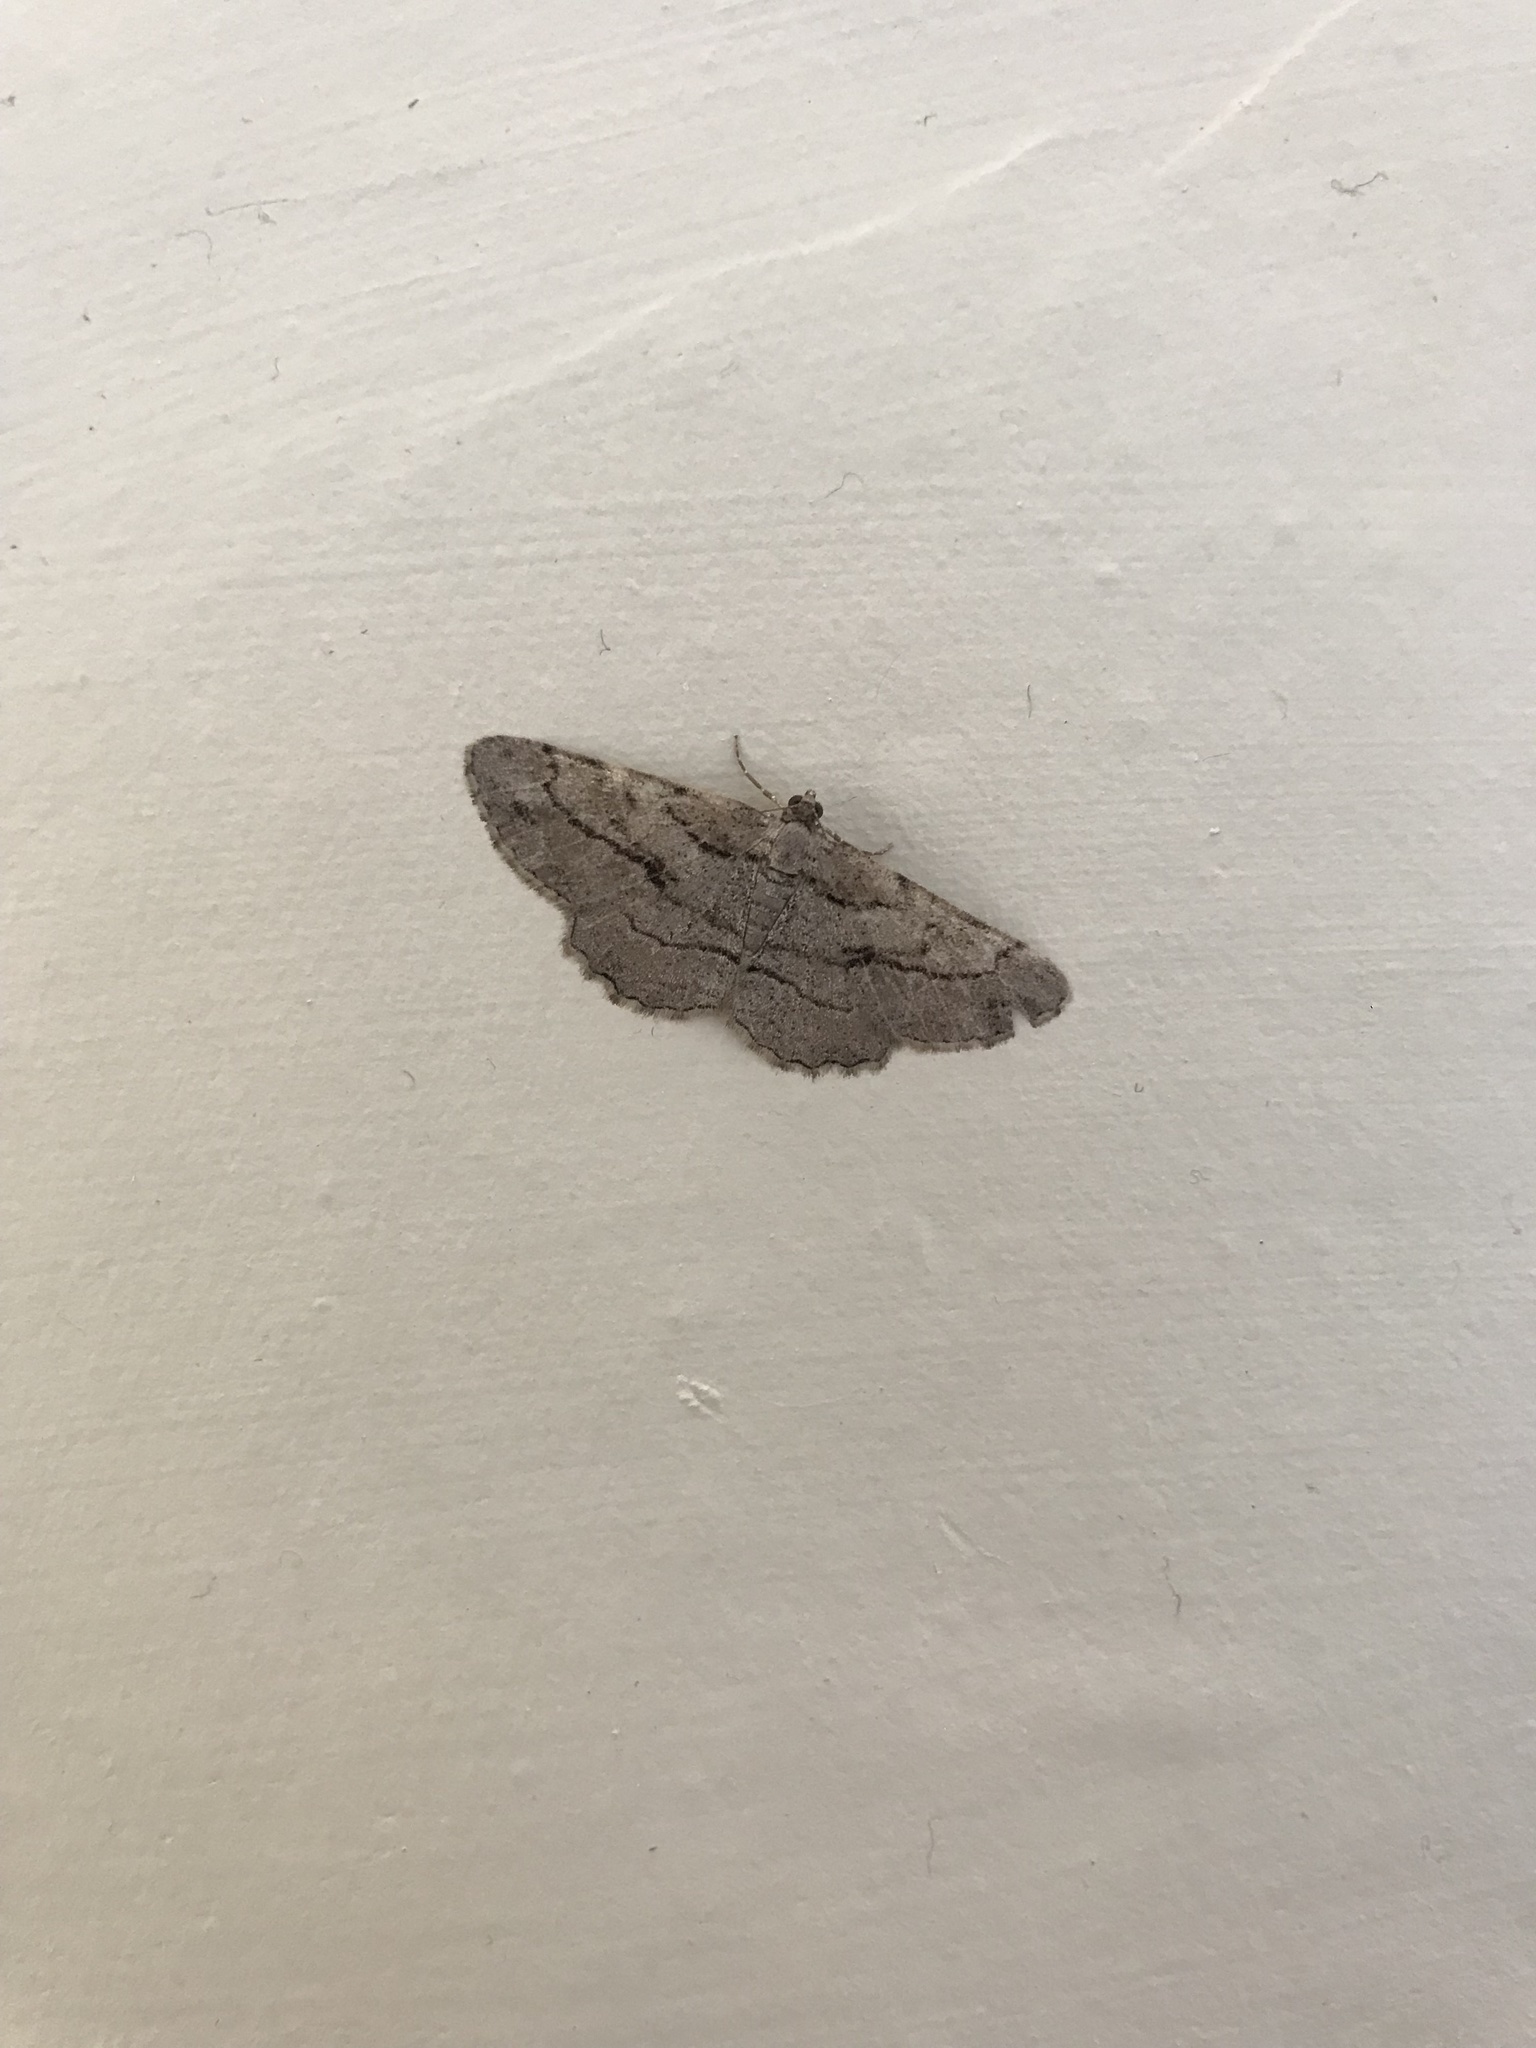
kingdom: Animalia
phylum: Arthropoda
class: Insecta
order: Lepidoptera
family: Geometridae
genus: Peribatodes
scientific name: Peribatodes correptaria
